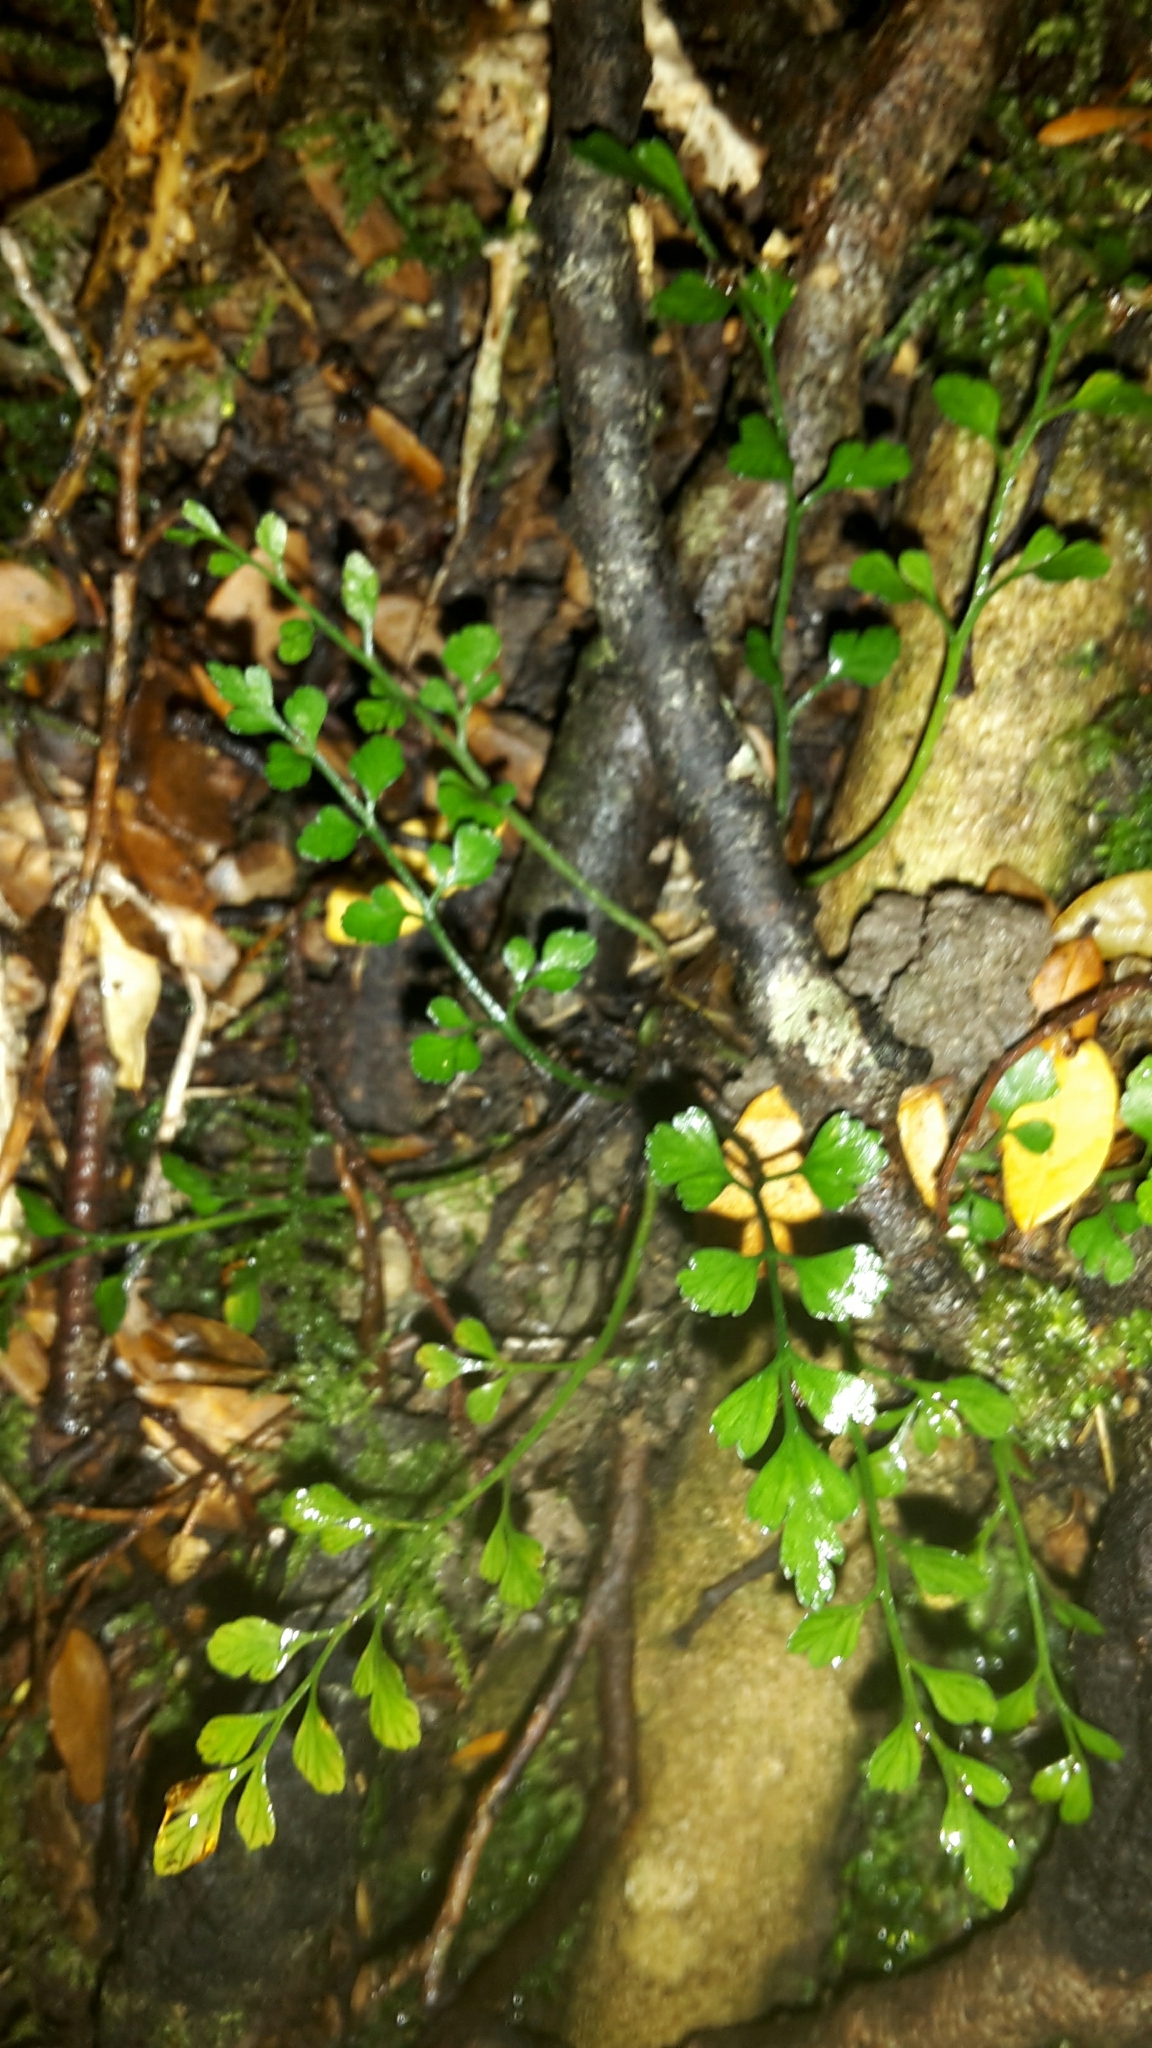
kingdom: Plantae
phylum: Tracheophyta
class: Polypodiopsida
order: Polypodiales
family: Aspleniaceae
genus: Asplenium
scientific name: Asplenium hookerianum
